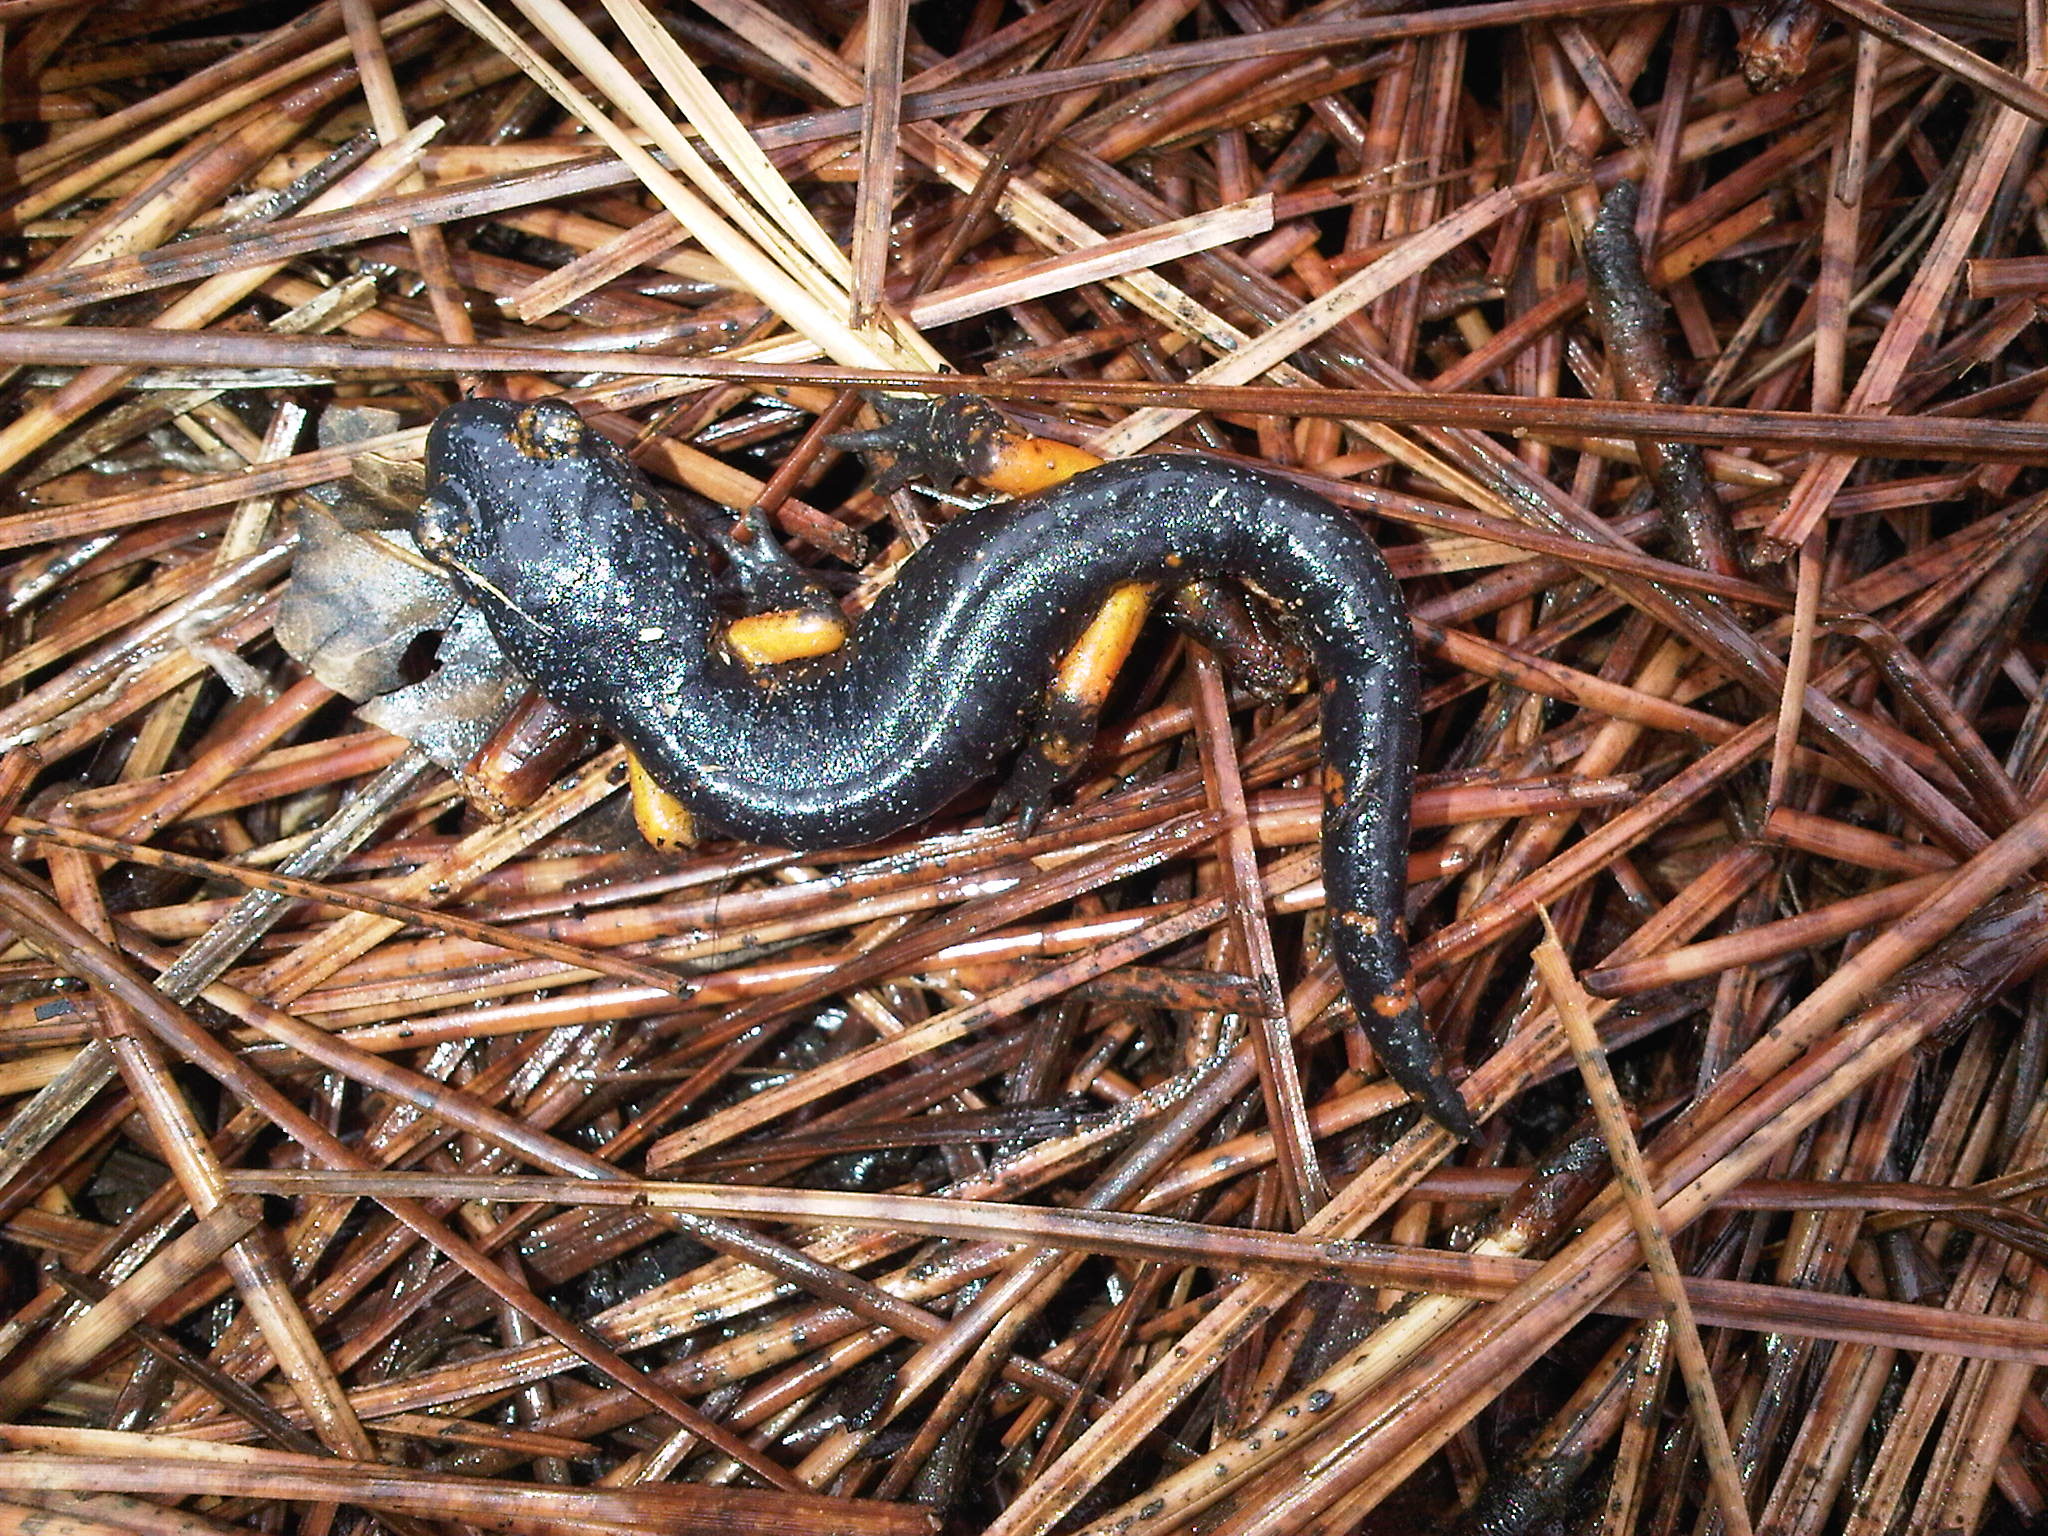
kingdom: Animalia
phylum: Chordata
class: Amphibia
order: Caudata
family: Plethodontidae
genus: Ensatina
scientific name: Ensatina eschscholtzii
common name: Ensatina
